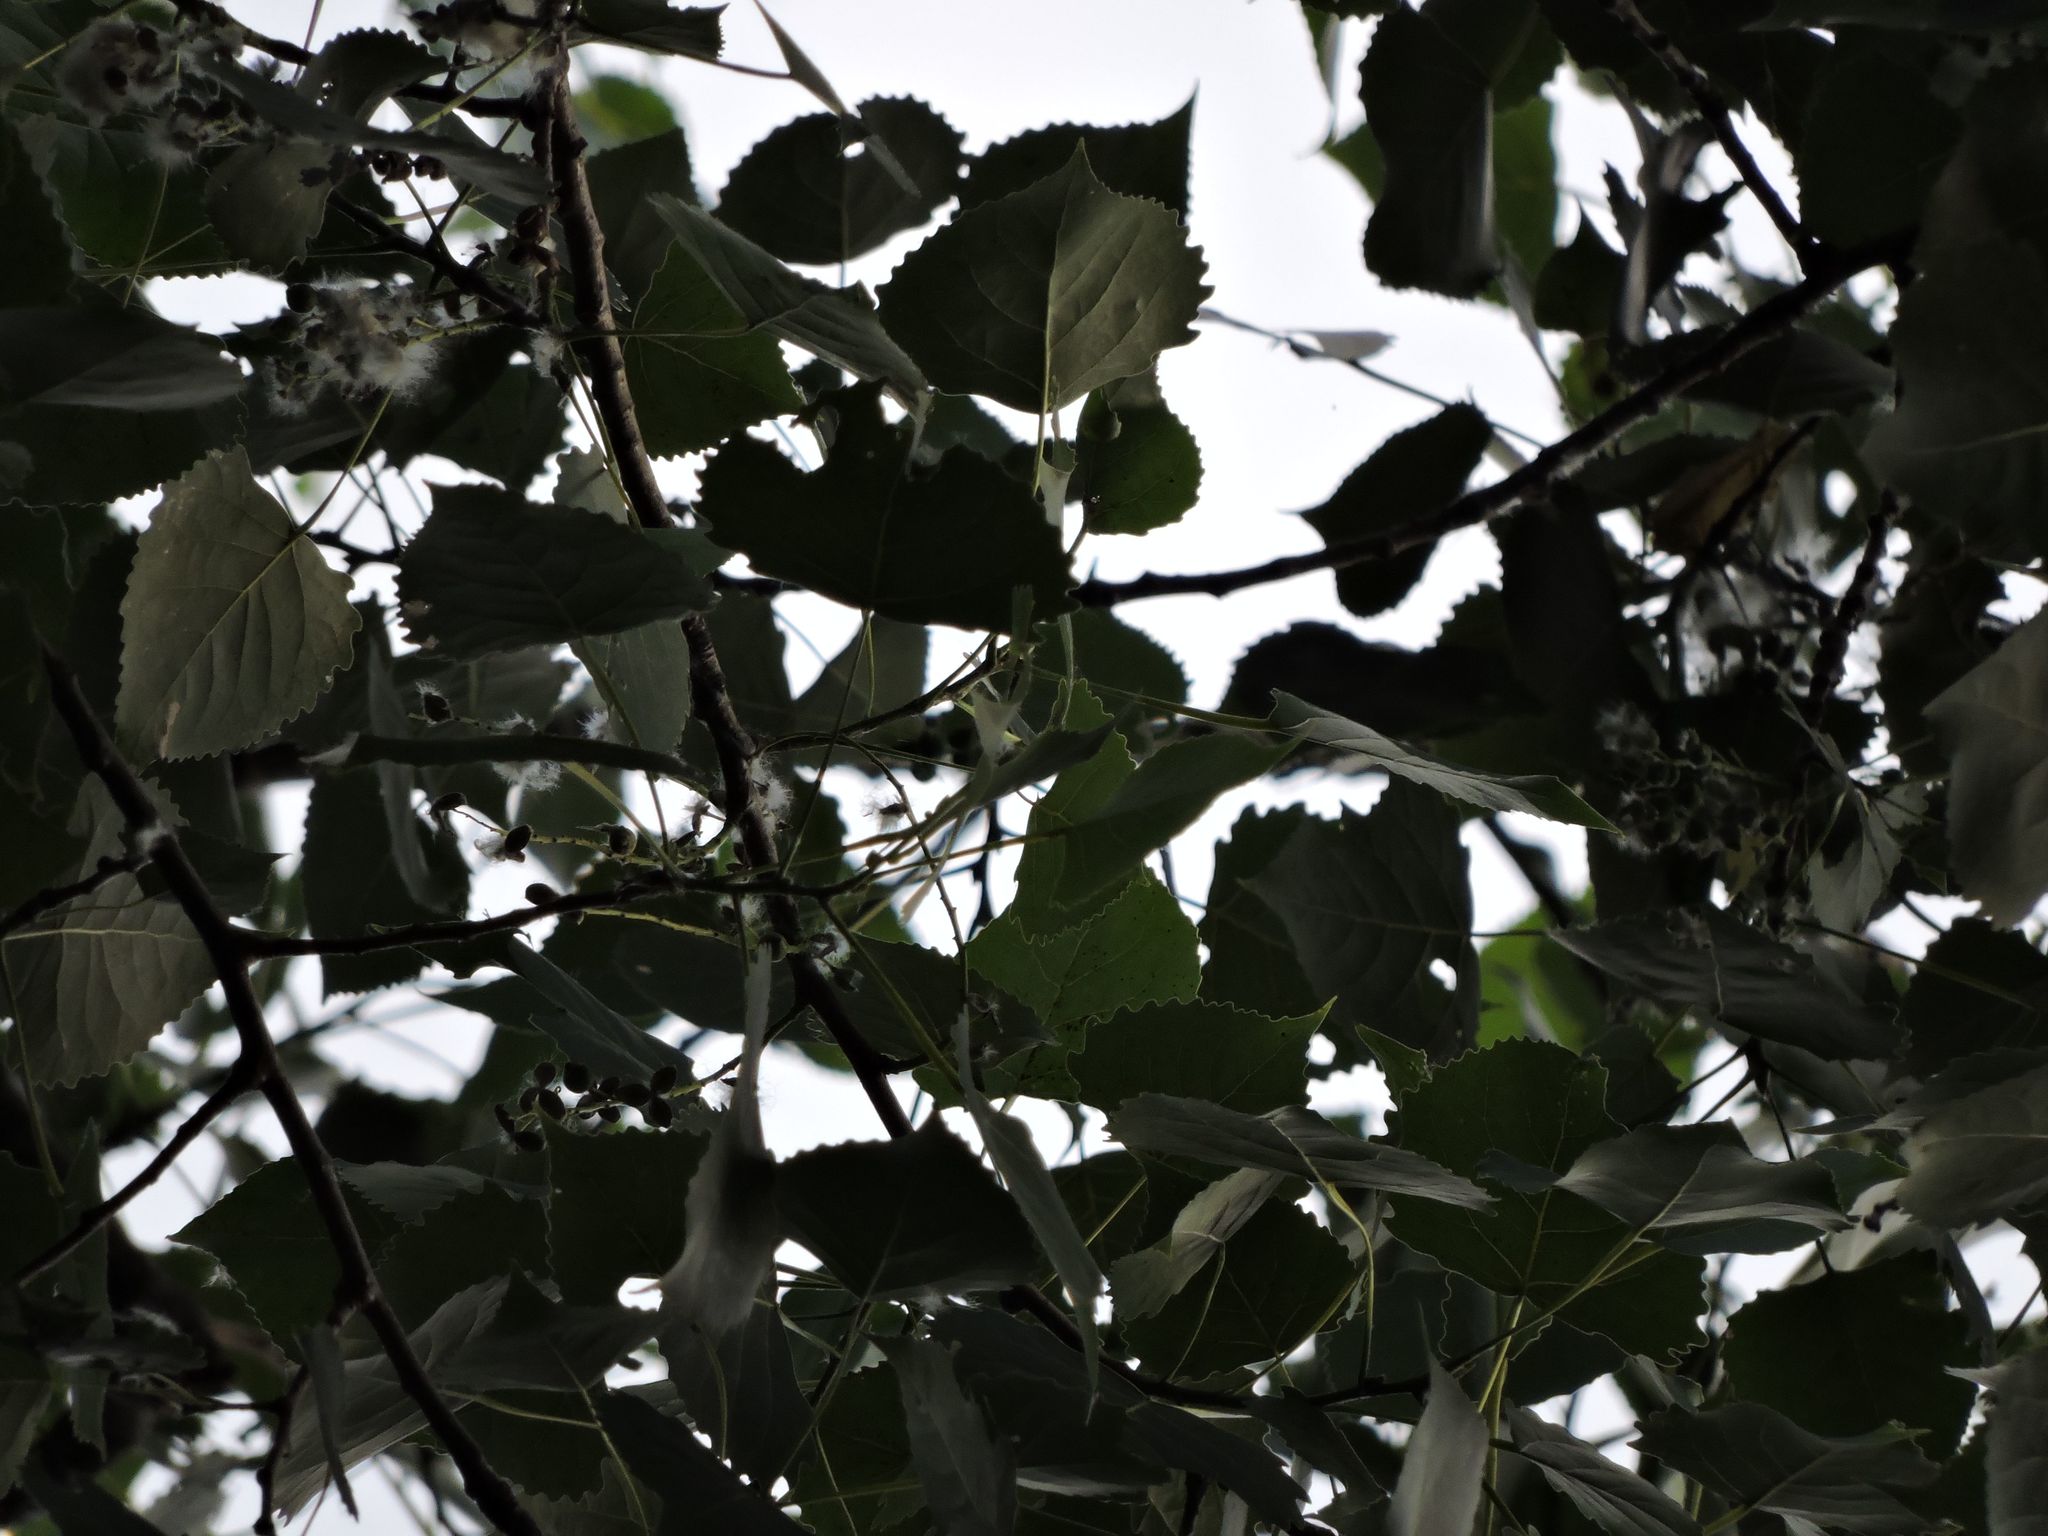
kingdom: Plantae
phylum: Tracheophyta
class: Magnoliopsida
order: Malpighiales
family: Salicaceae
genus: Populus
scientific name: Populus deltoides
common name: Eastern cottonwood
